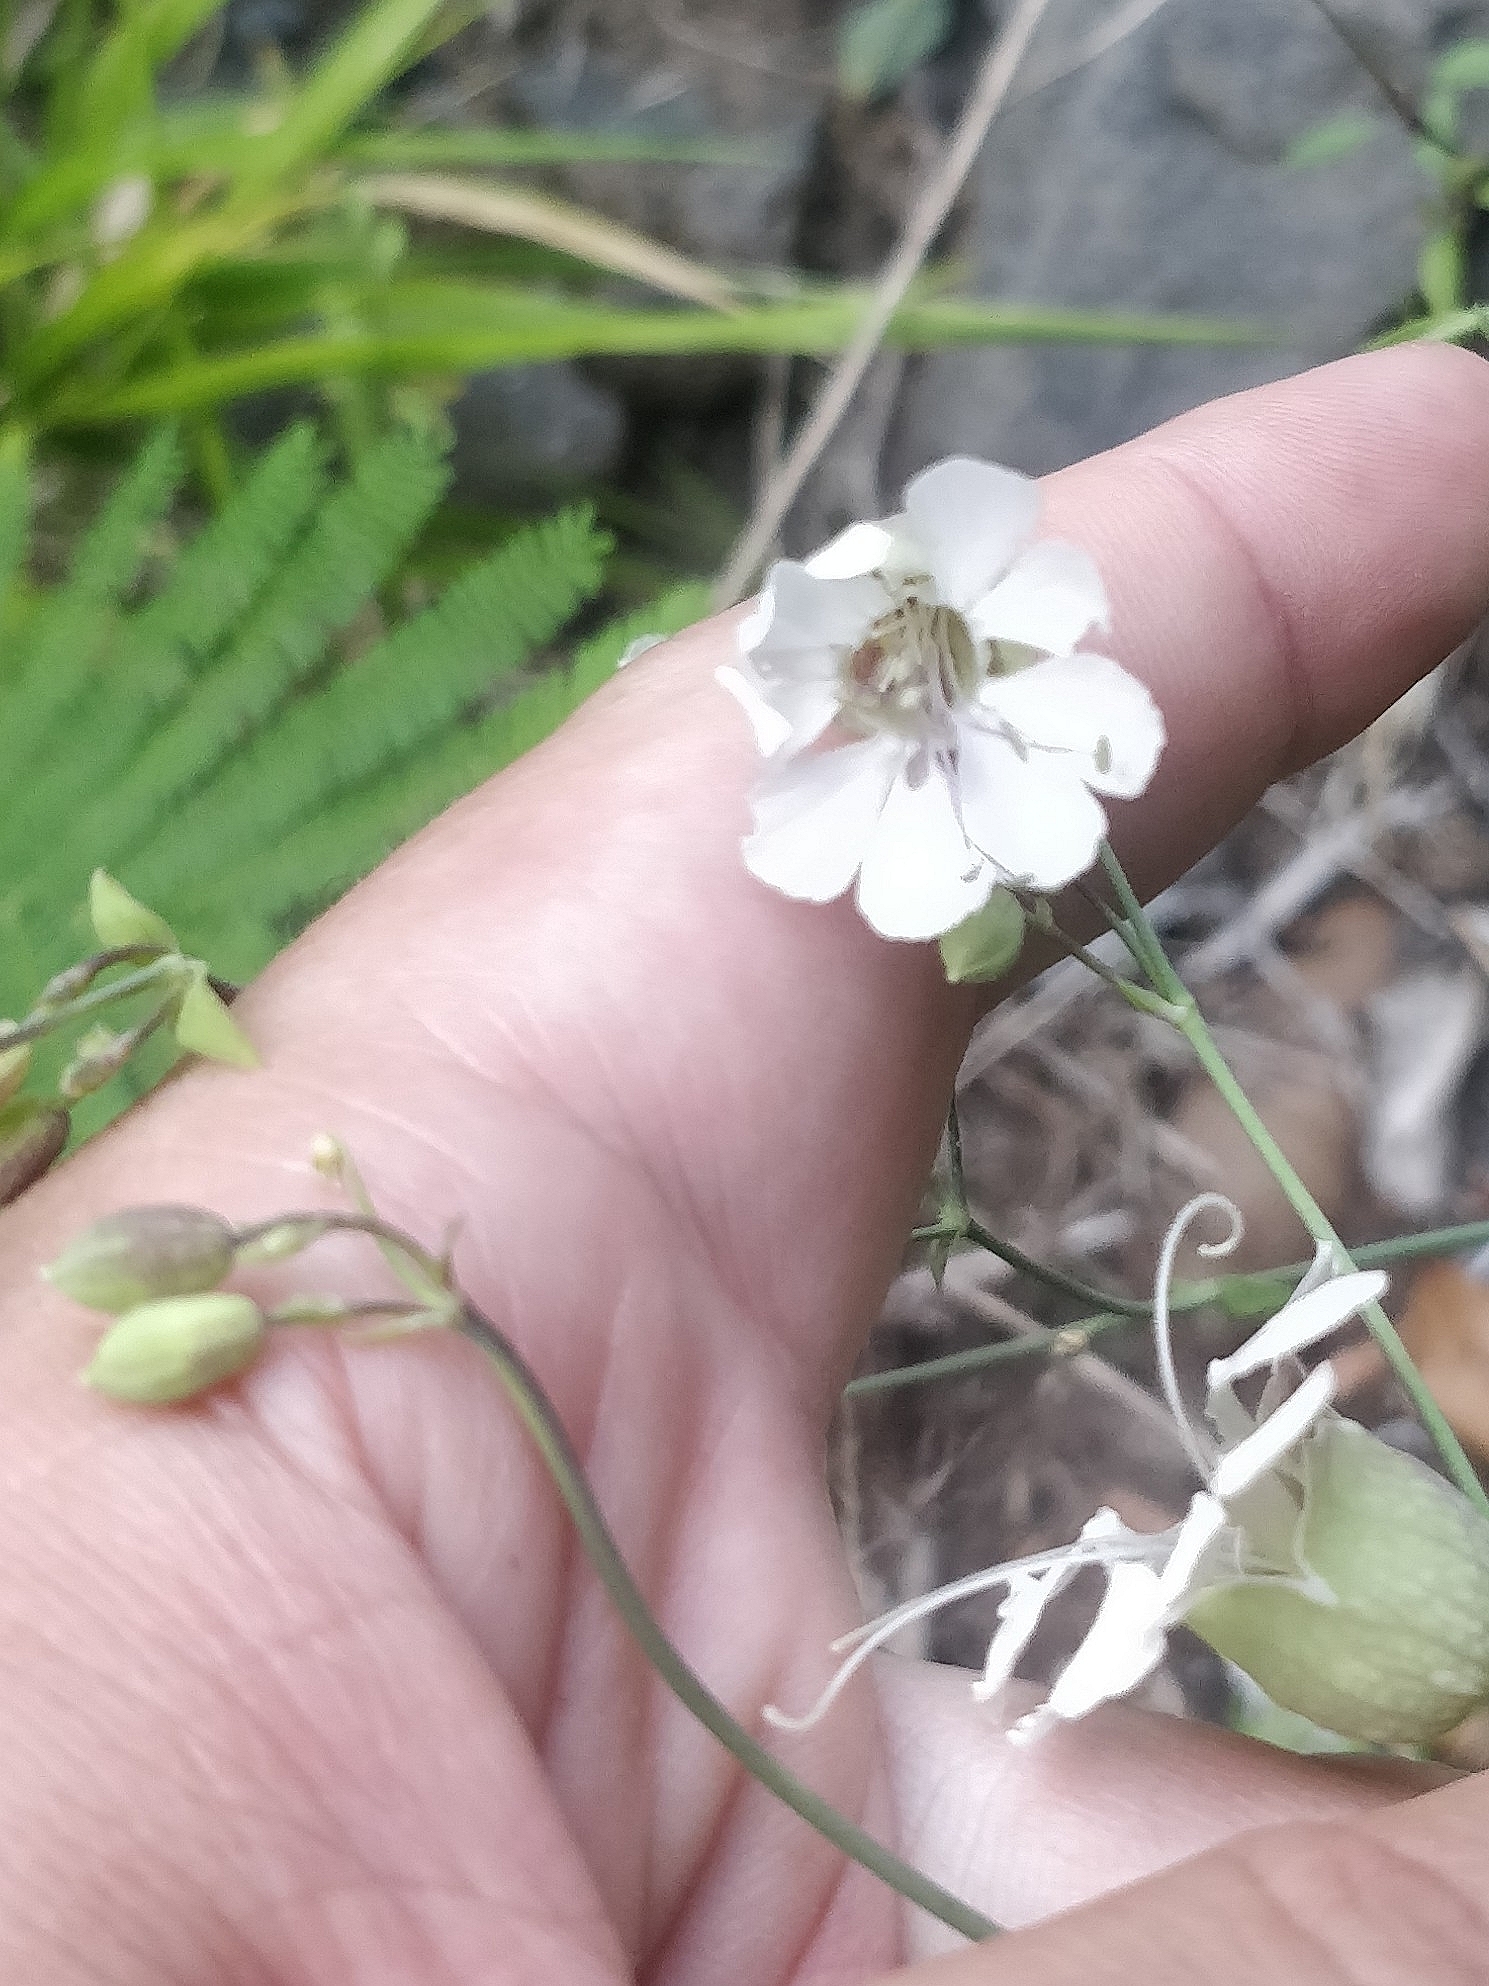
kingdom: Plantae
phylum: Tracheophyta
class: Magnoliopsida
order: Caryophyllales
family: Caryophyllaceae
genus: Silene
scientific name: Silene uniflora
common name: Sea campion
